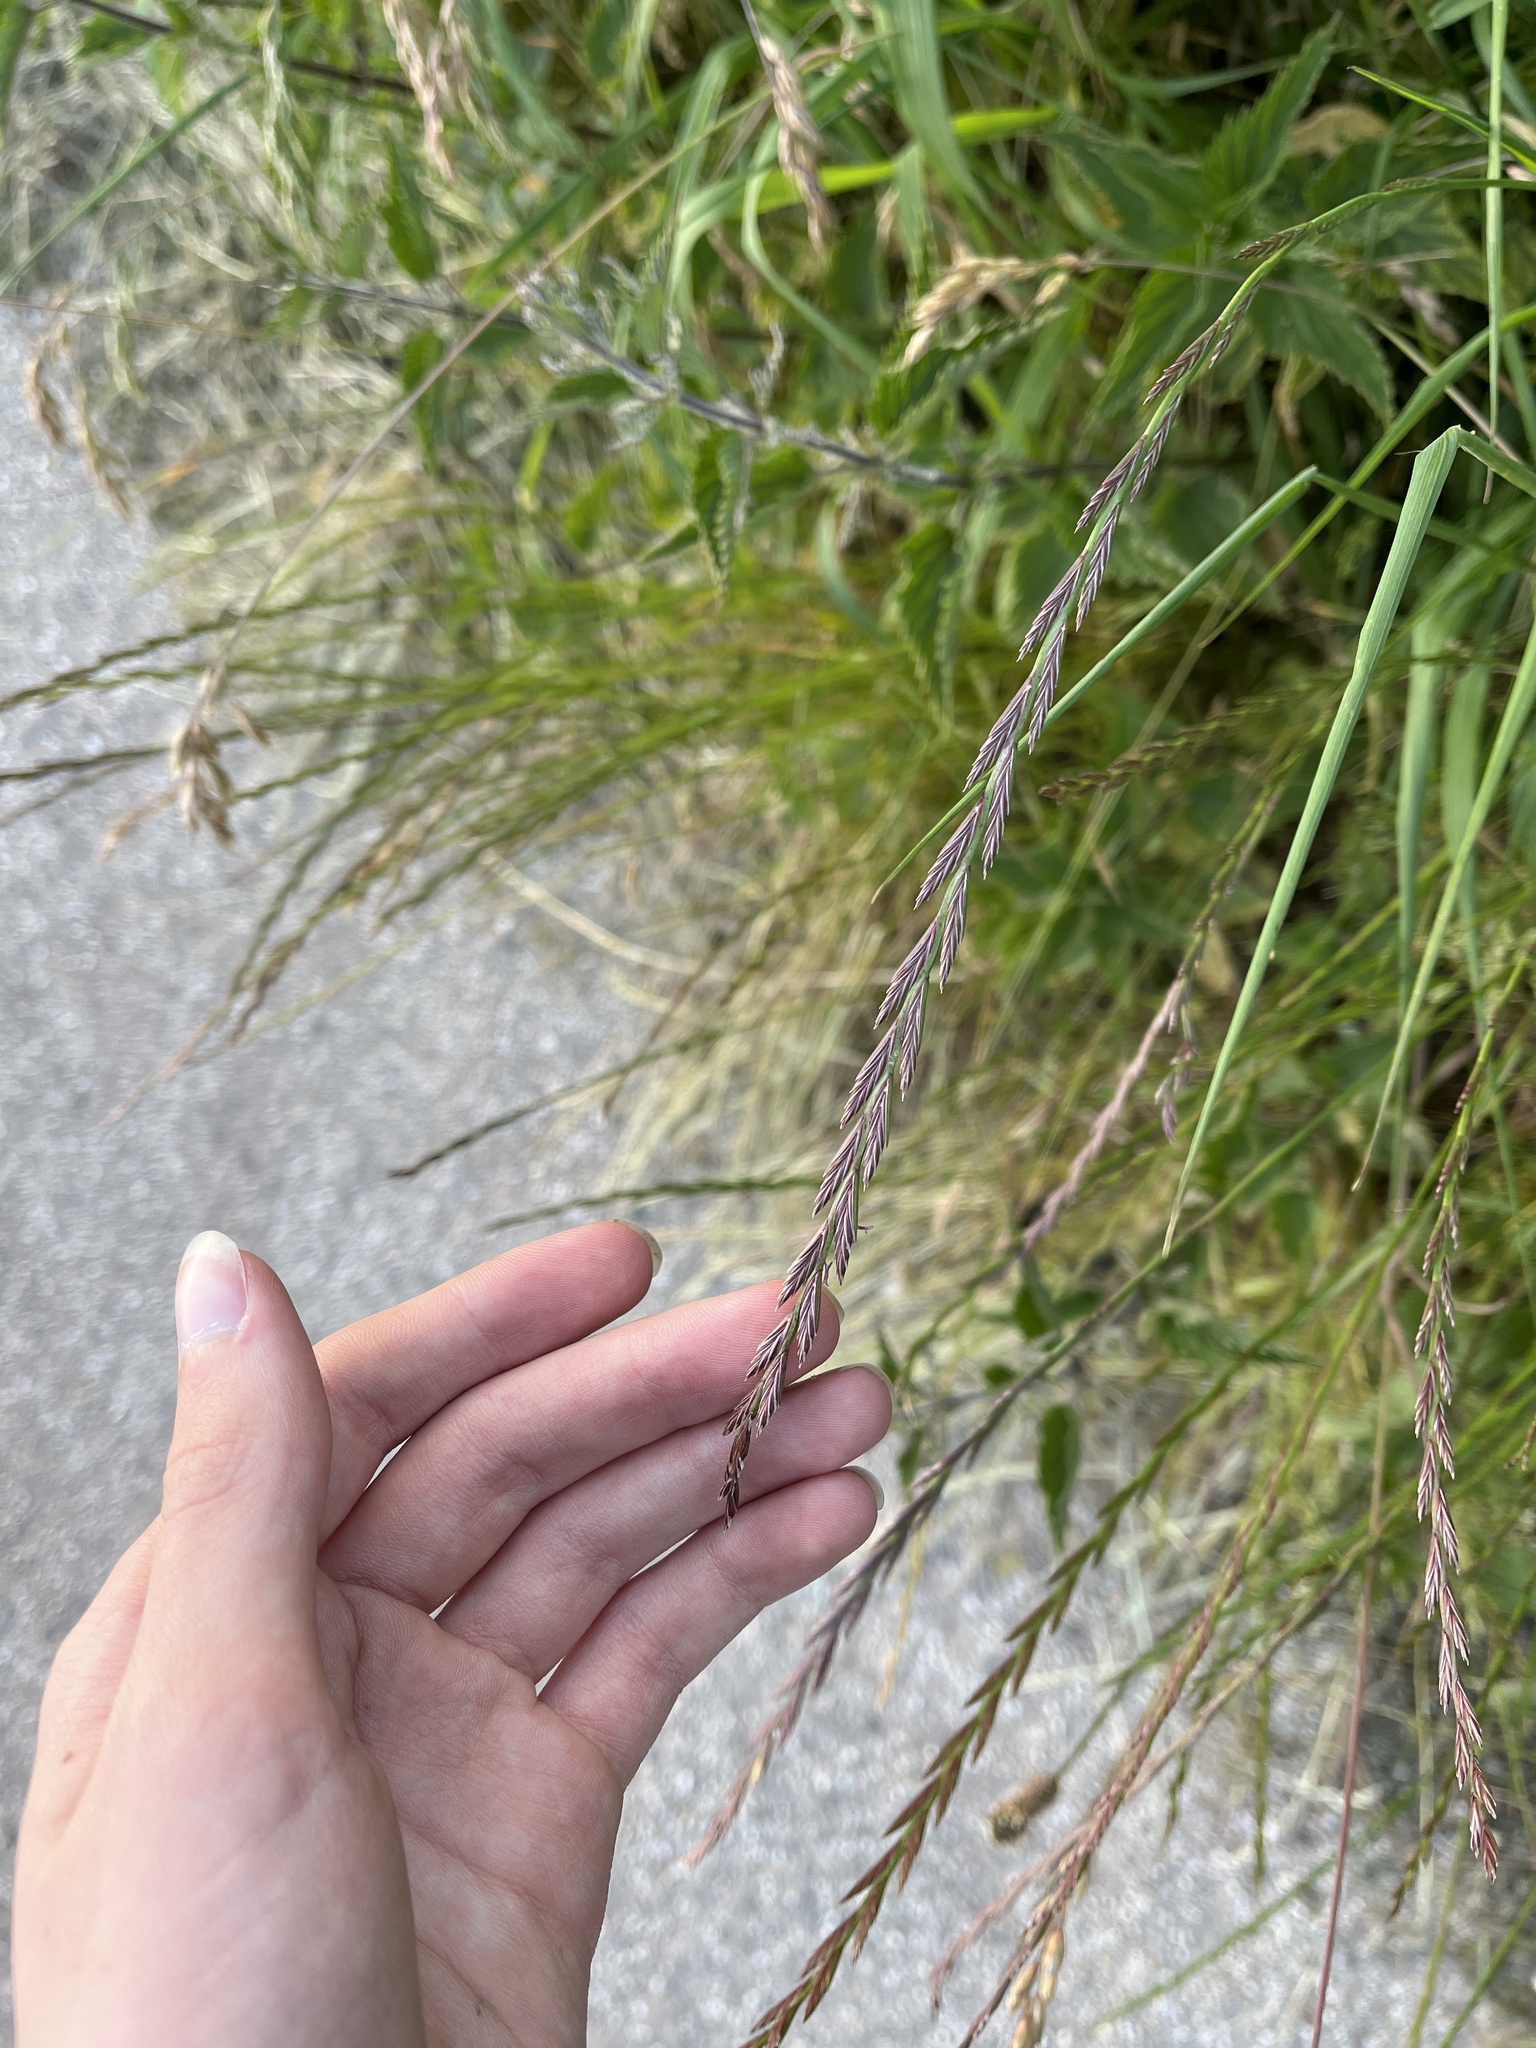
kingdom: Plantae
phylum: Tracheophyta
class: Liliopsida
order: Poales
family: Poaceae
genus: Lolium
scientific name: Lolium perenne
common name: Perennial ryegrass
